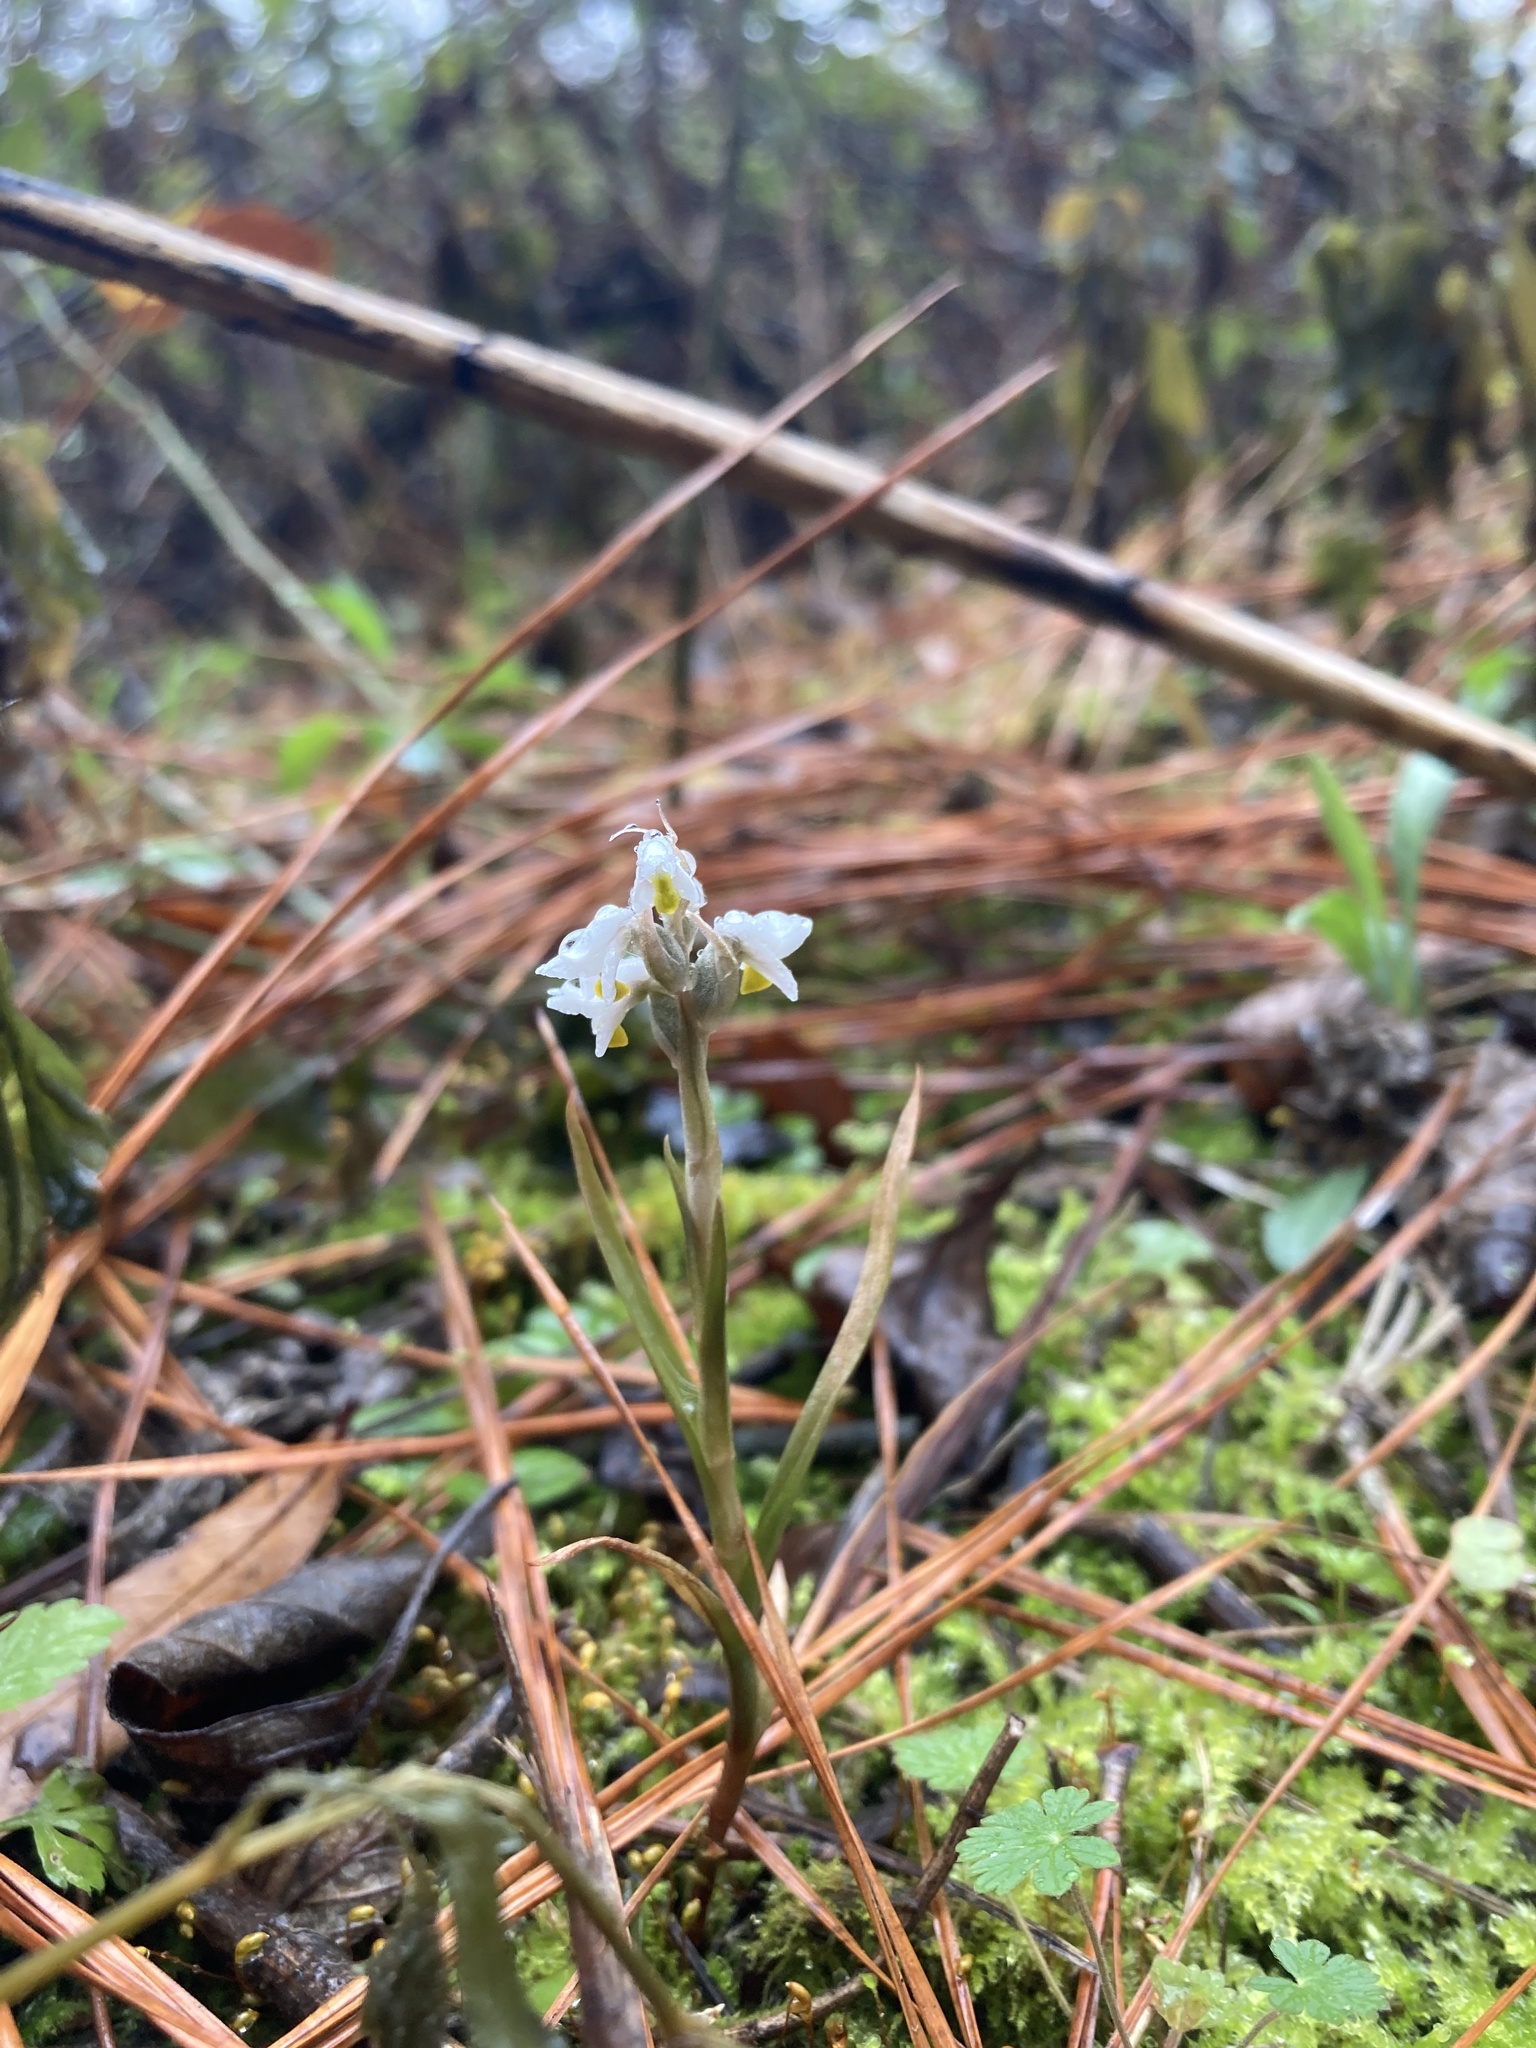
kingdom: Plantae
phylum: Tracheophyta
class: Liliopsida
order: Asparagales
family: Orchidaceae
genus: Zeuxine
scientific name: Zeuxine strateumatica
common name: Soldier's orchid
